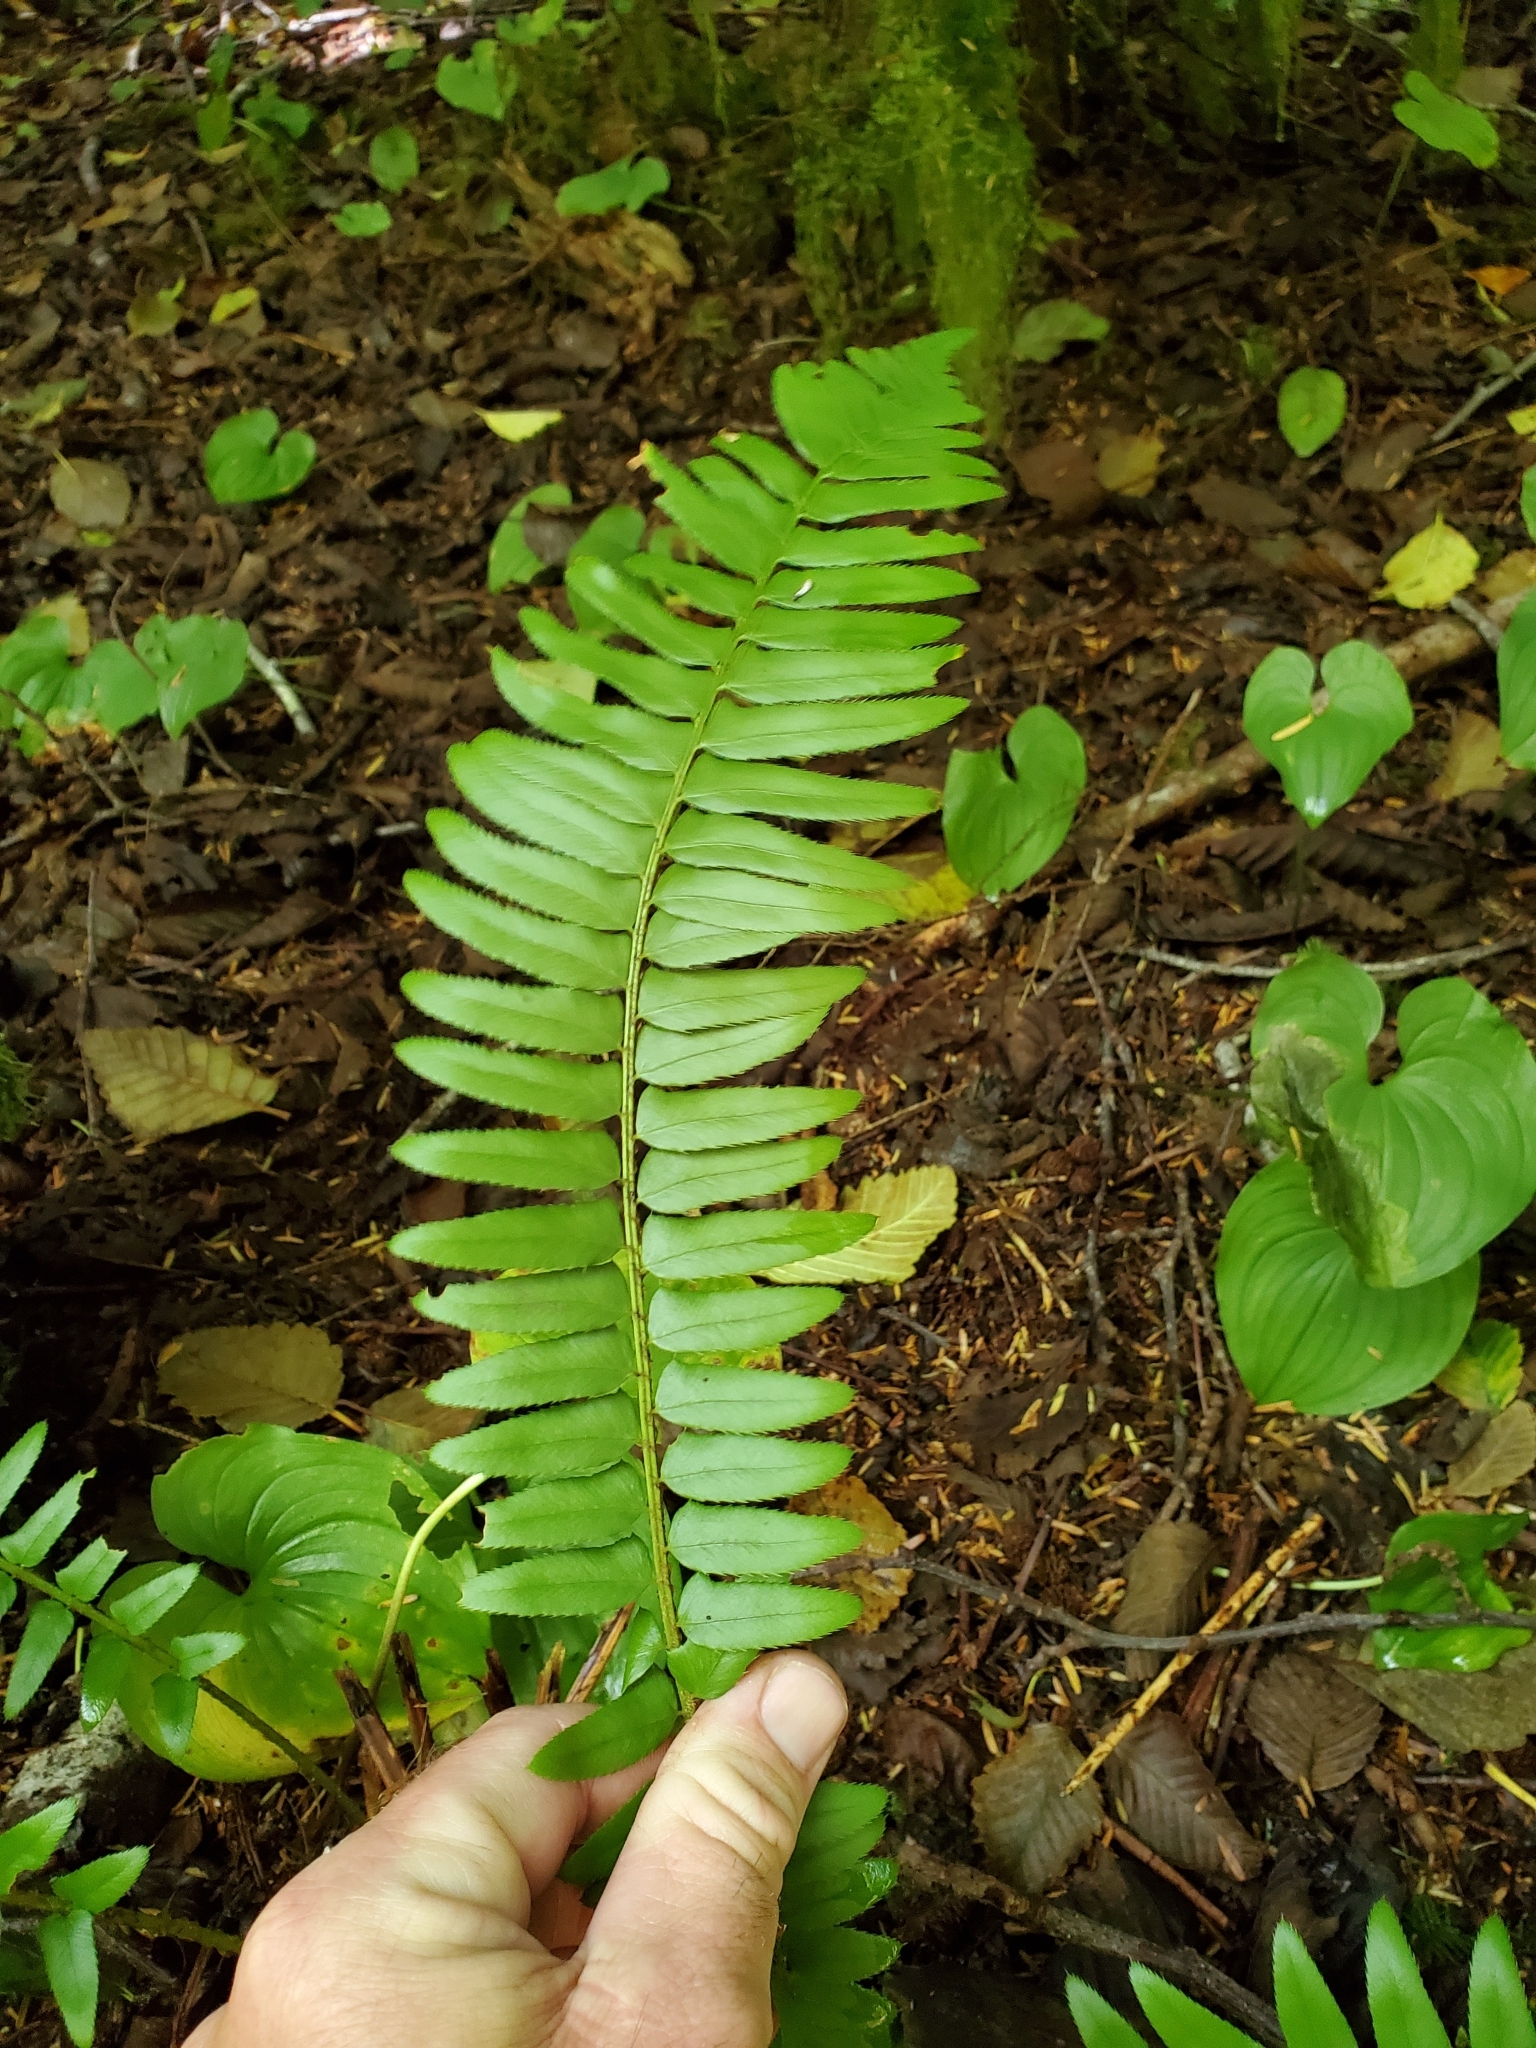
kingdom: Plantae
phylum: Tracheophyta
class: Polypodiopsida
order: Polypodiales
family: Dryopteridaceae
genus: Polystichum
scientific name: Polystichum munitum
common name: Western sword-fern
